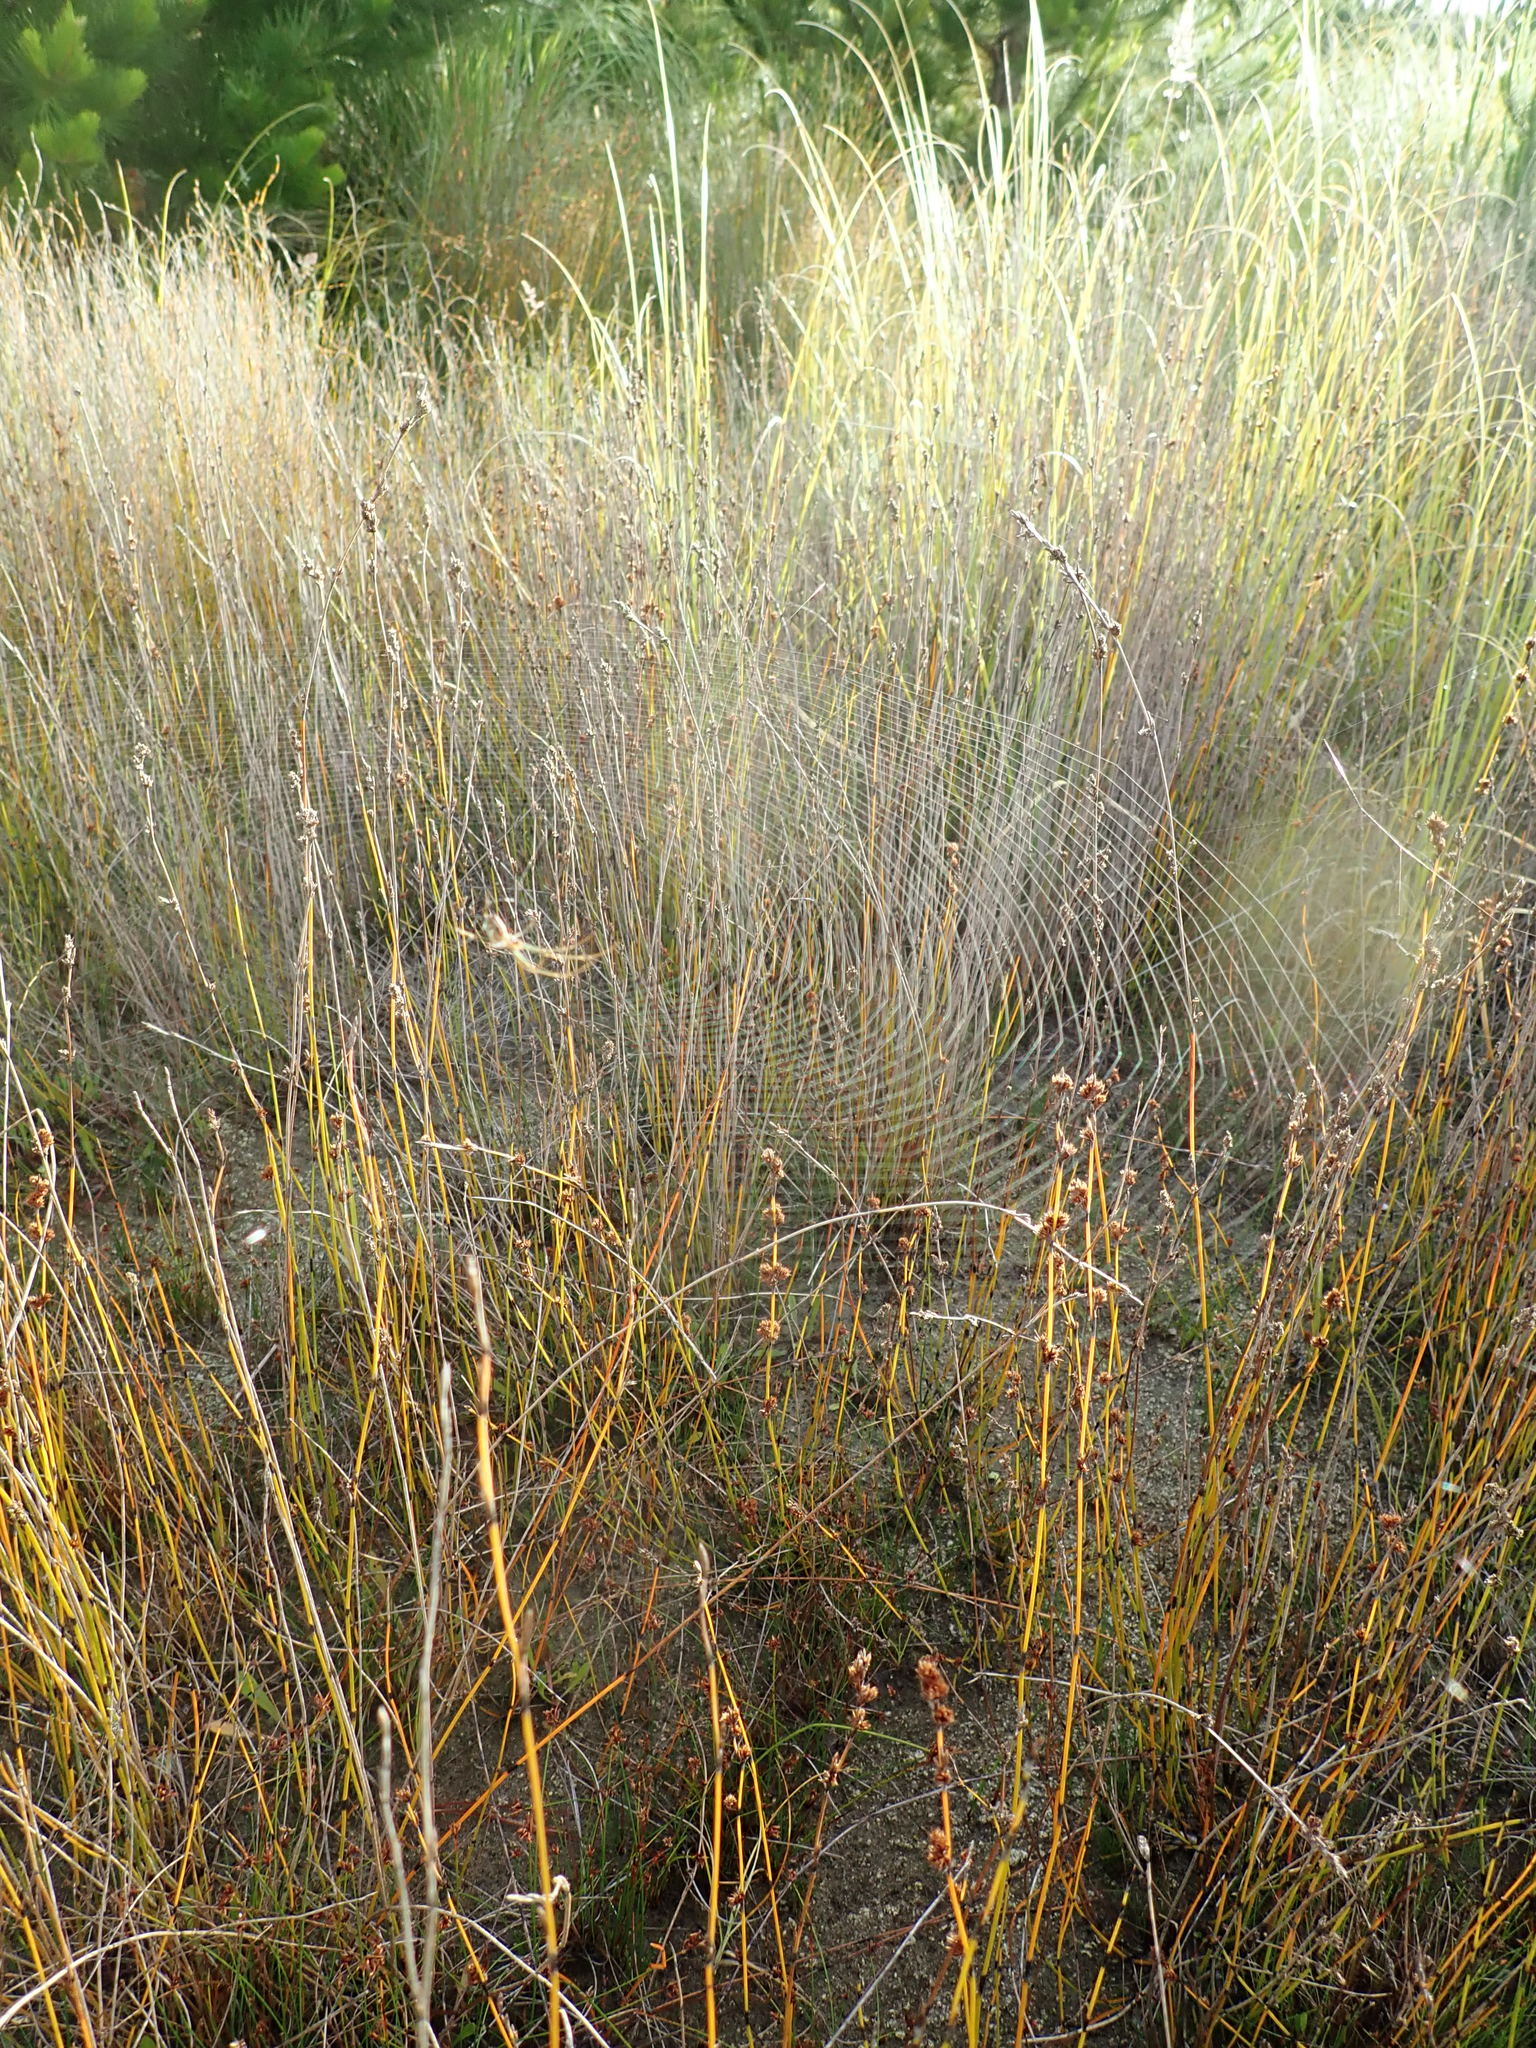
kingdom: Animalia
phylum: Arthropoda
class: Arachnida
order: Araneae
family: Tetragnathidae
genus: Leucauge
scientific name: Leucauge dromedaria
